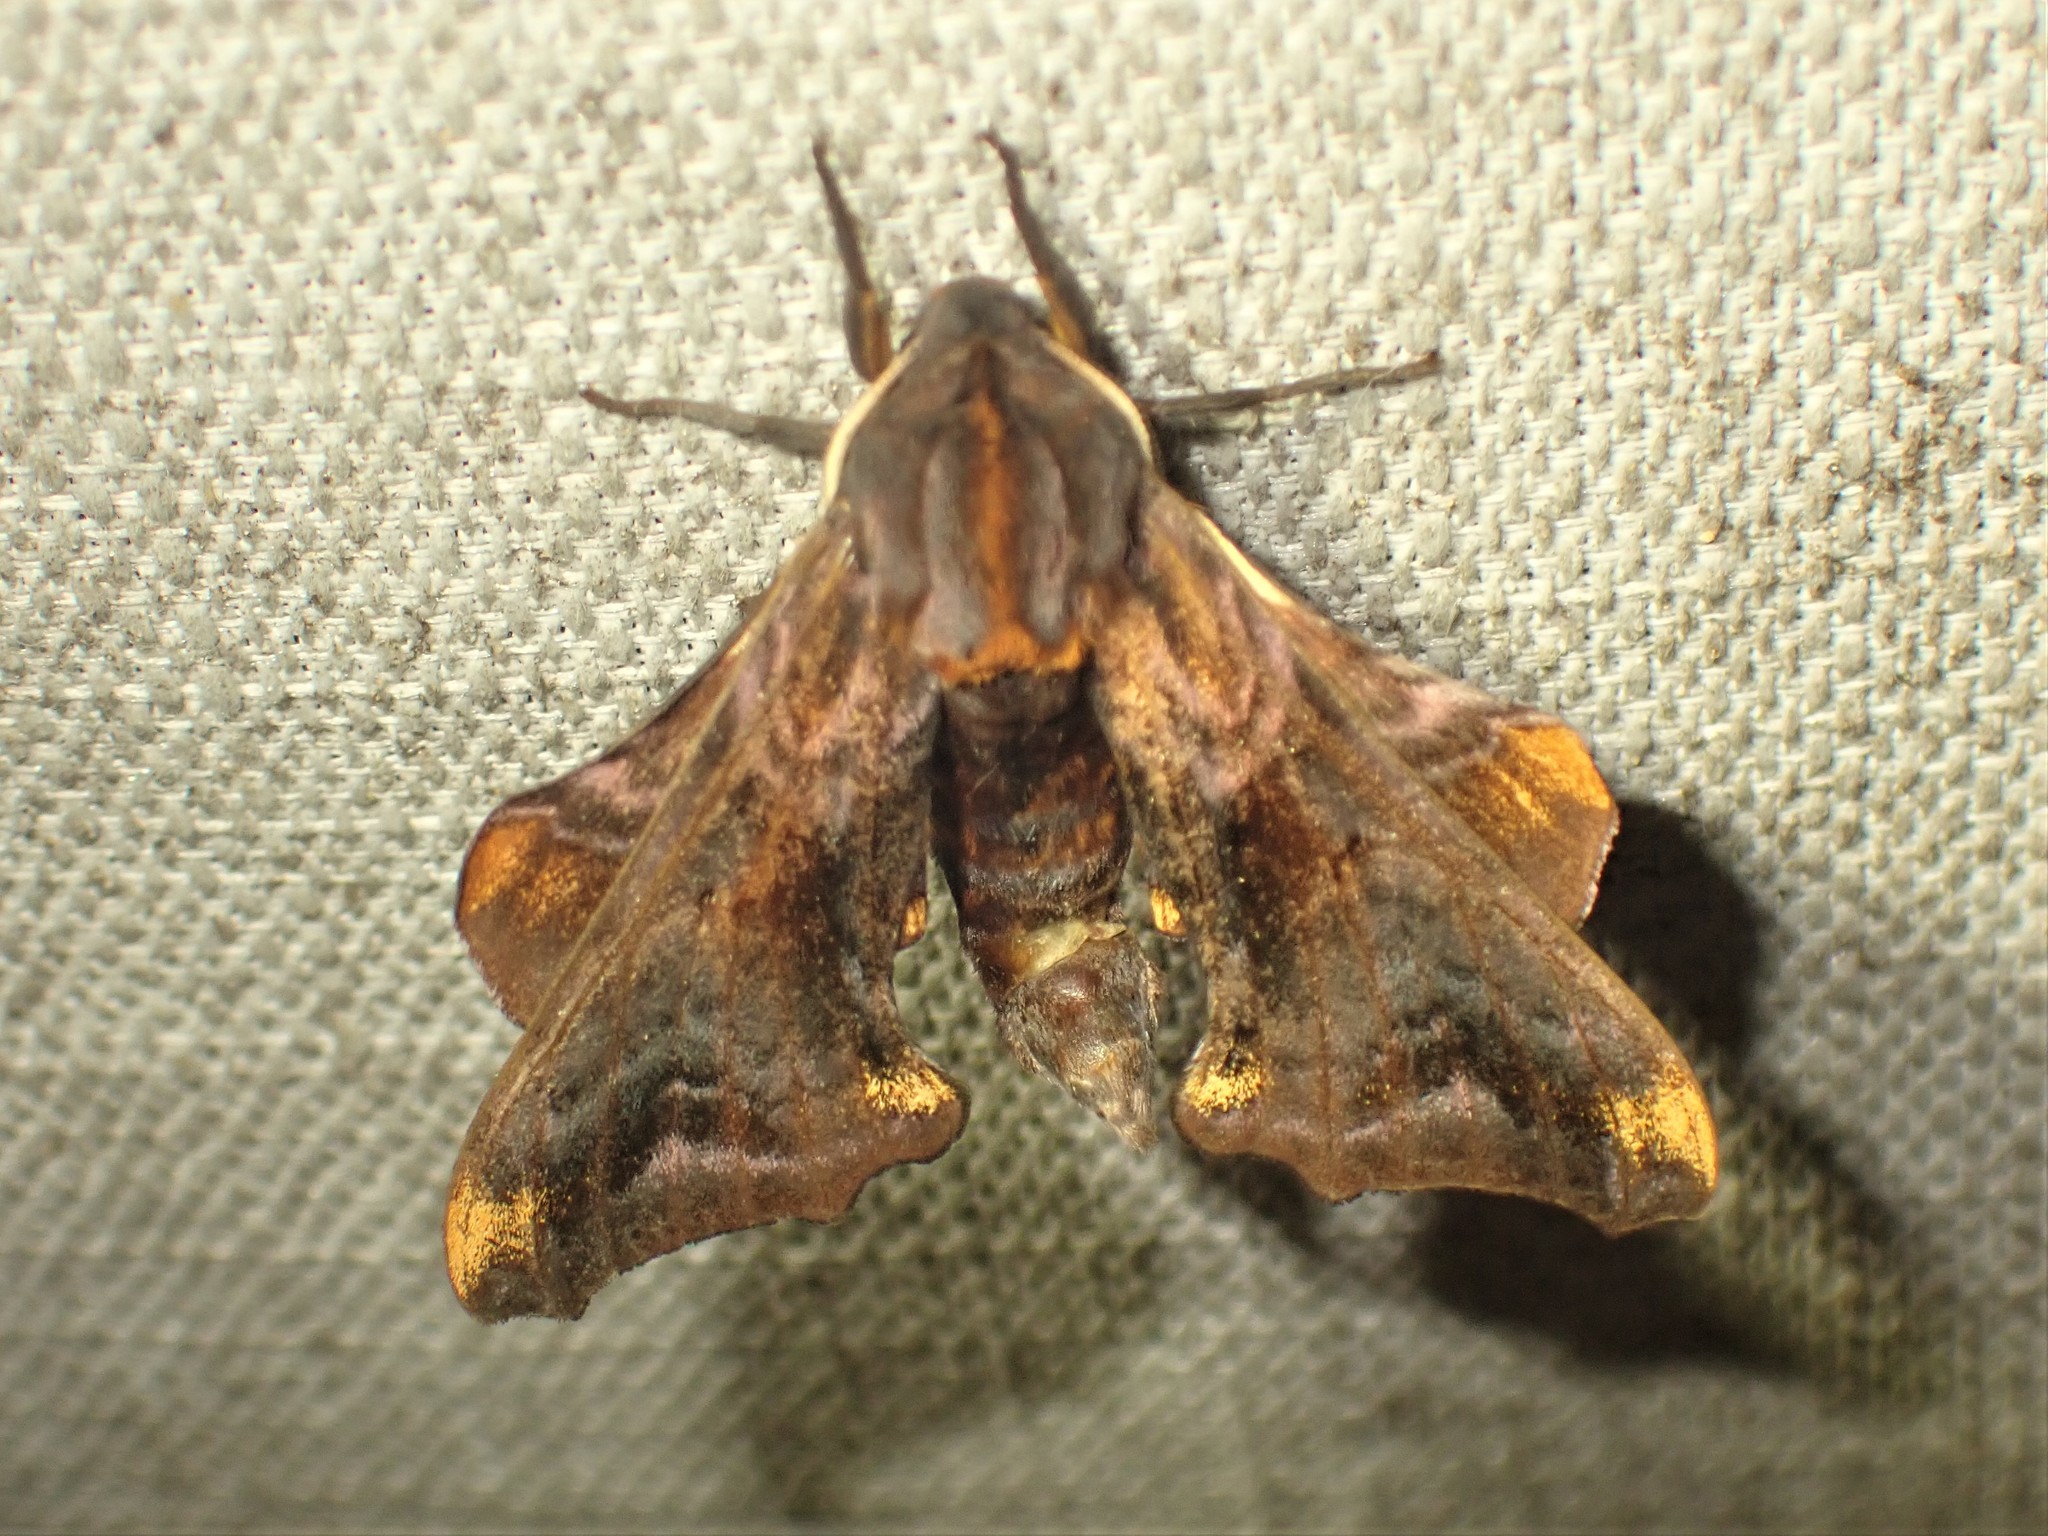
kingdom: Animalia
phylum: Arthropoda
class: Insecta
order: Lepidoptera
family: Sphingidae
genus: Paonias
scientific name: Paonias myops
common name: Small-eyed sphinx
